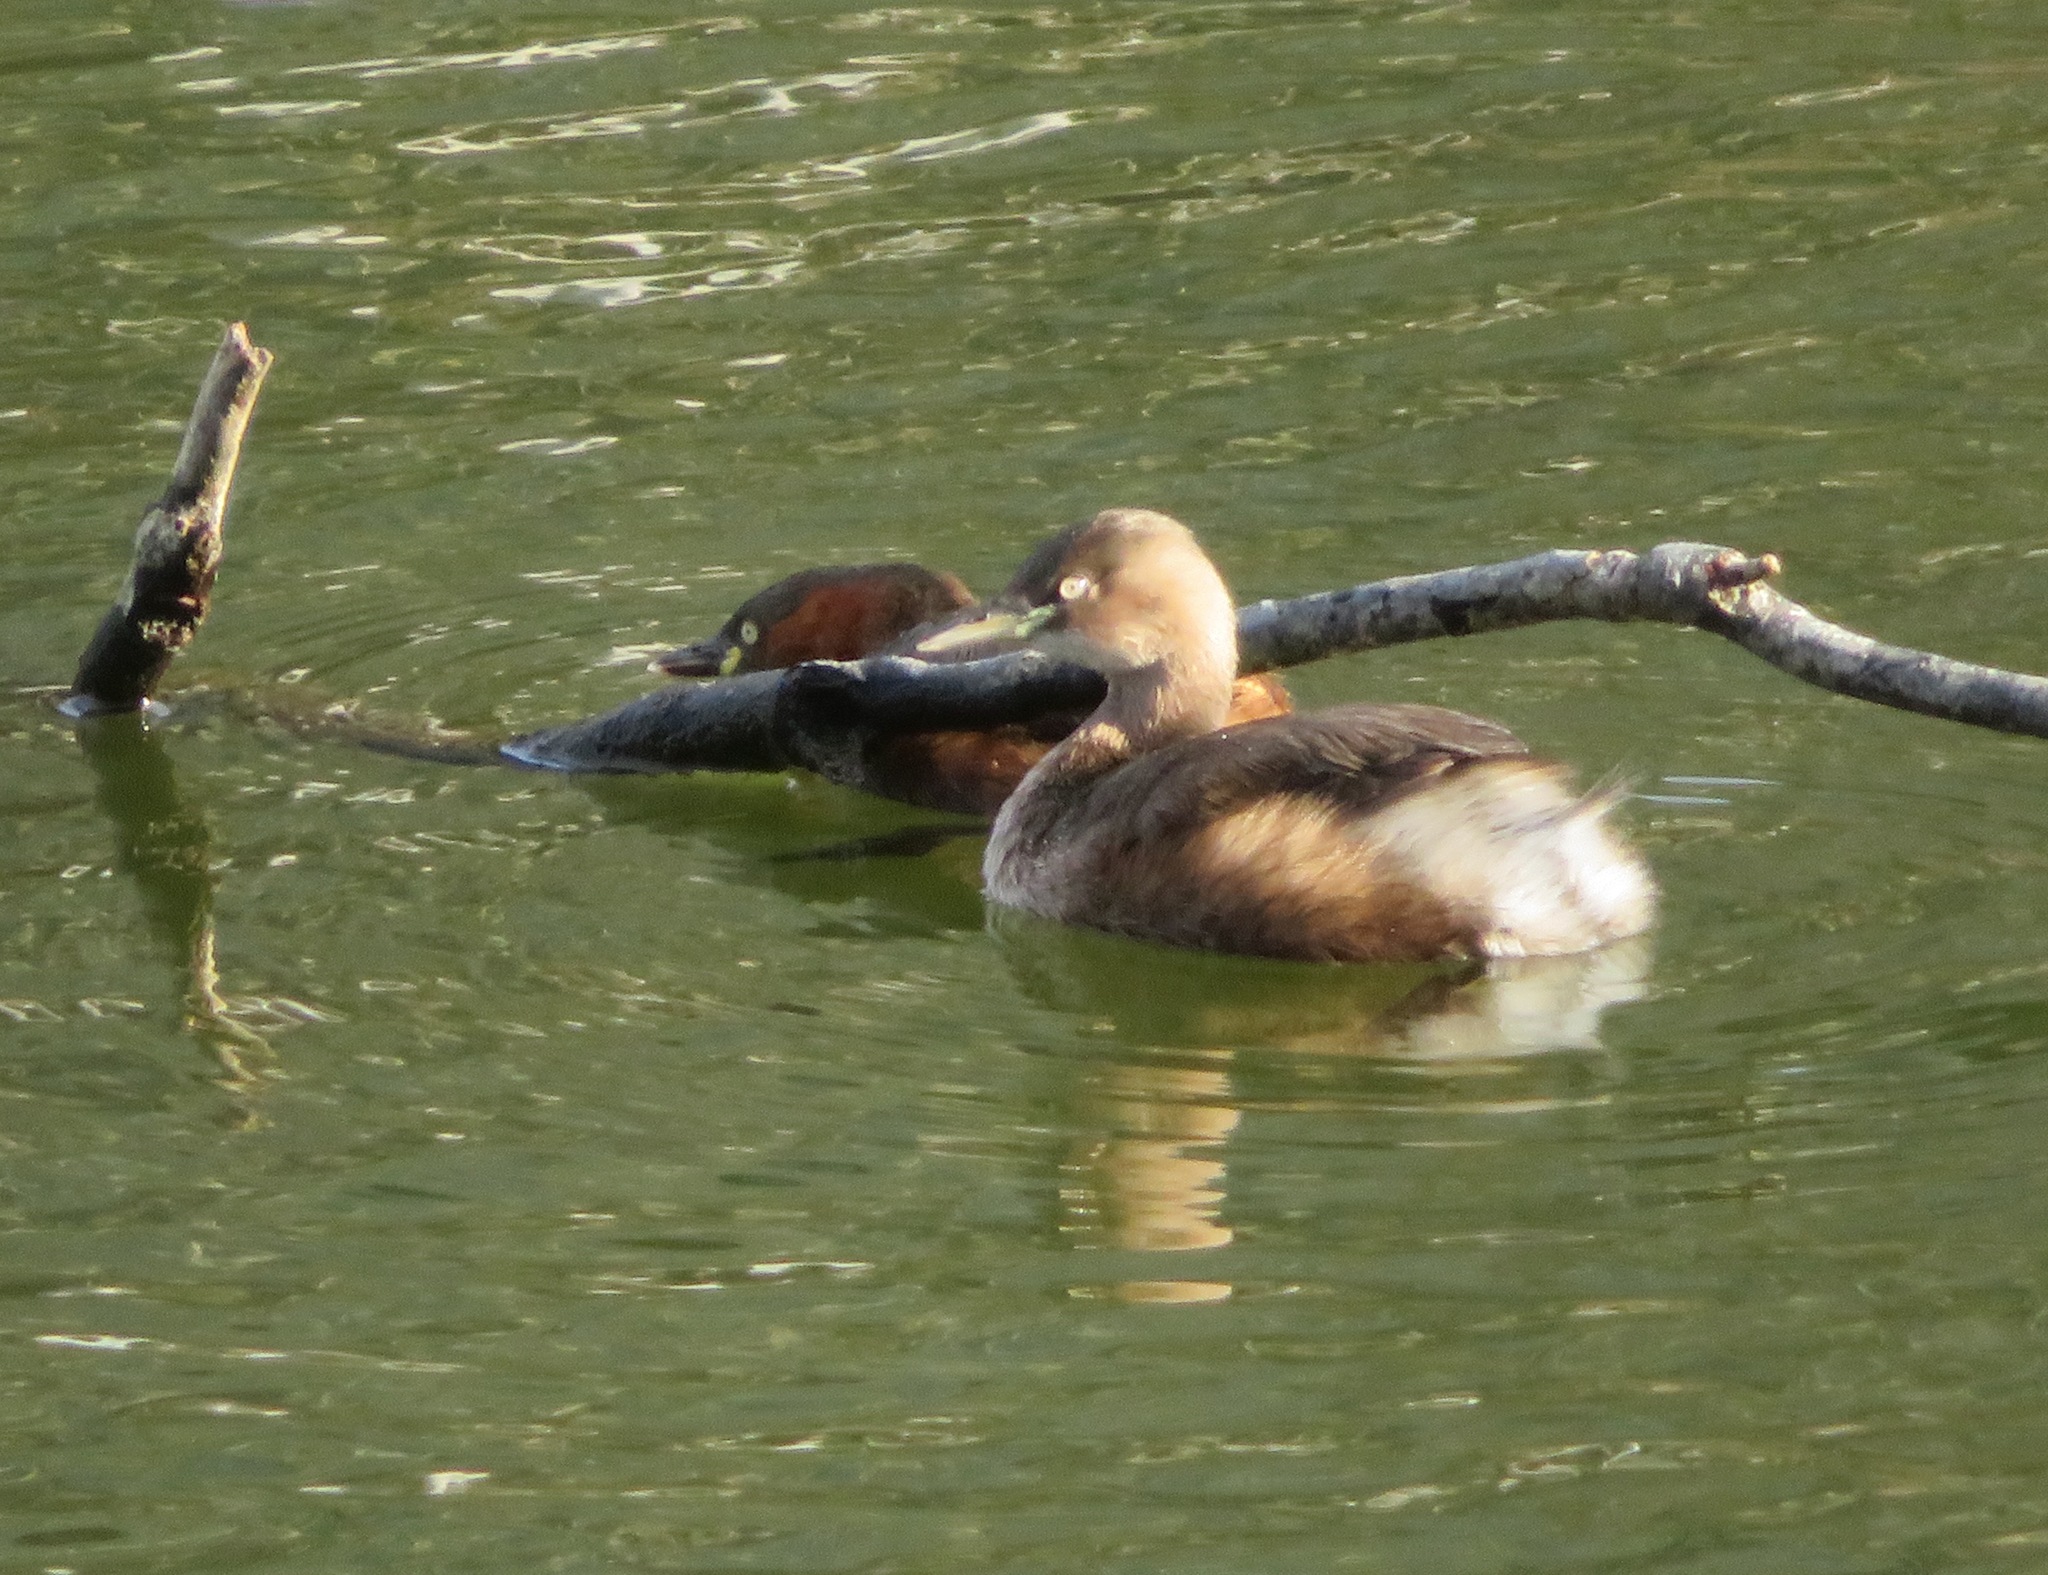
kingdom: Animalia
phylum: Chordata
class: Aves
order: Podicipediformes
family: Podicipedidae
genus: Tachybaptus
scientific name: Tachybaptus ruficollis
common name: Little grebe
